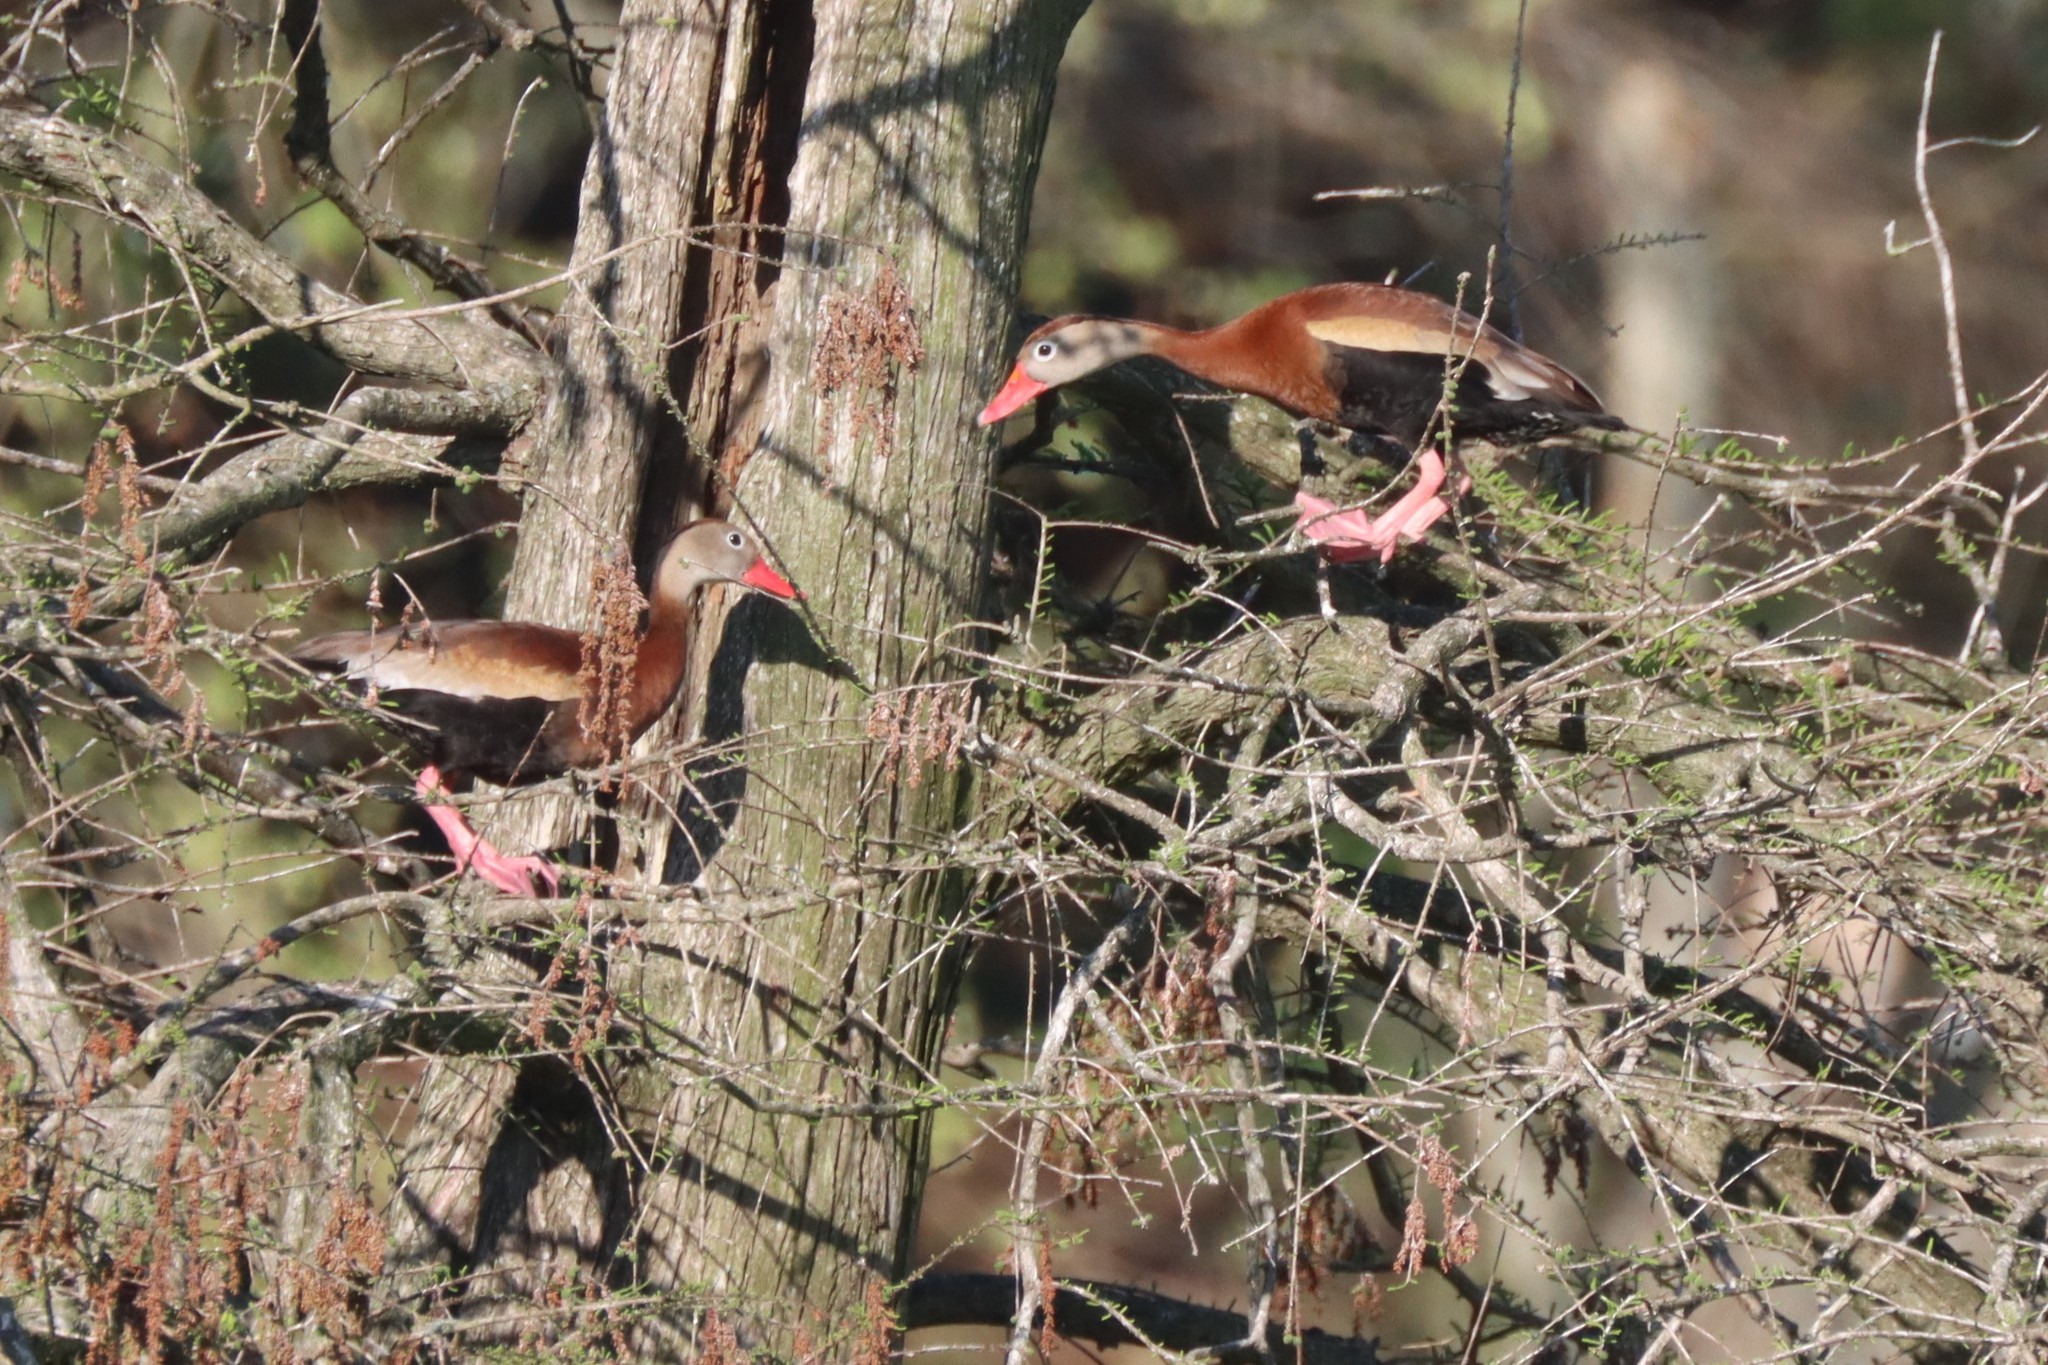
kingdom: Animalia
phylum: Chordata
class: Aves
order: Anseriformes
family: Anatidae
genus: Dendrocygna
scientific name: Dendrocygna autumnalis
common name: Black-bellied whistling duck
